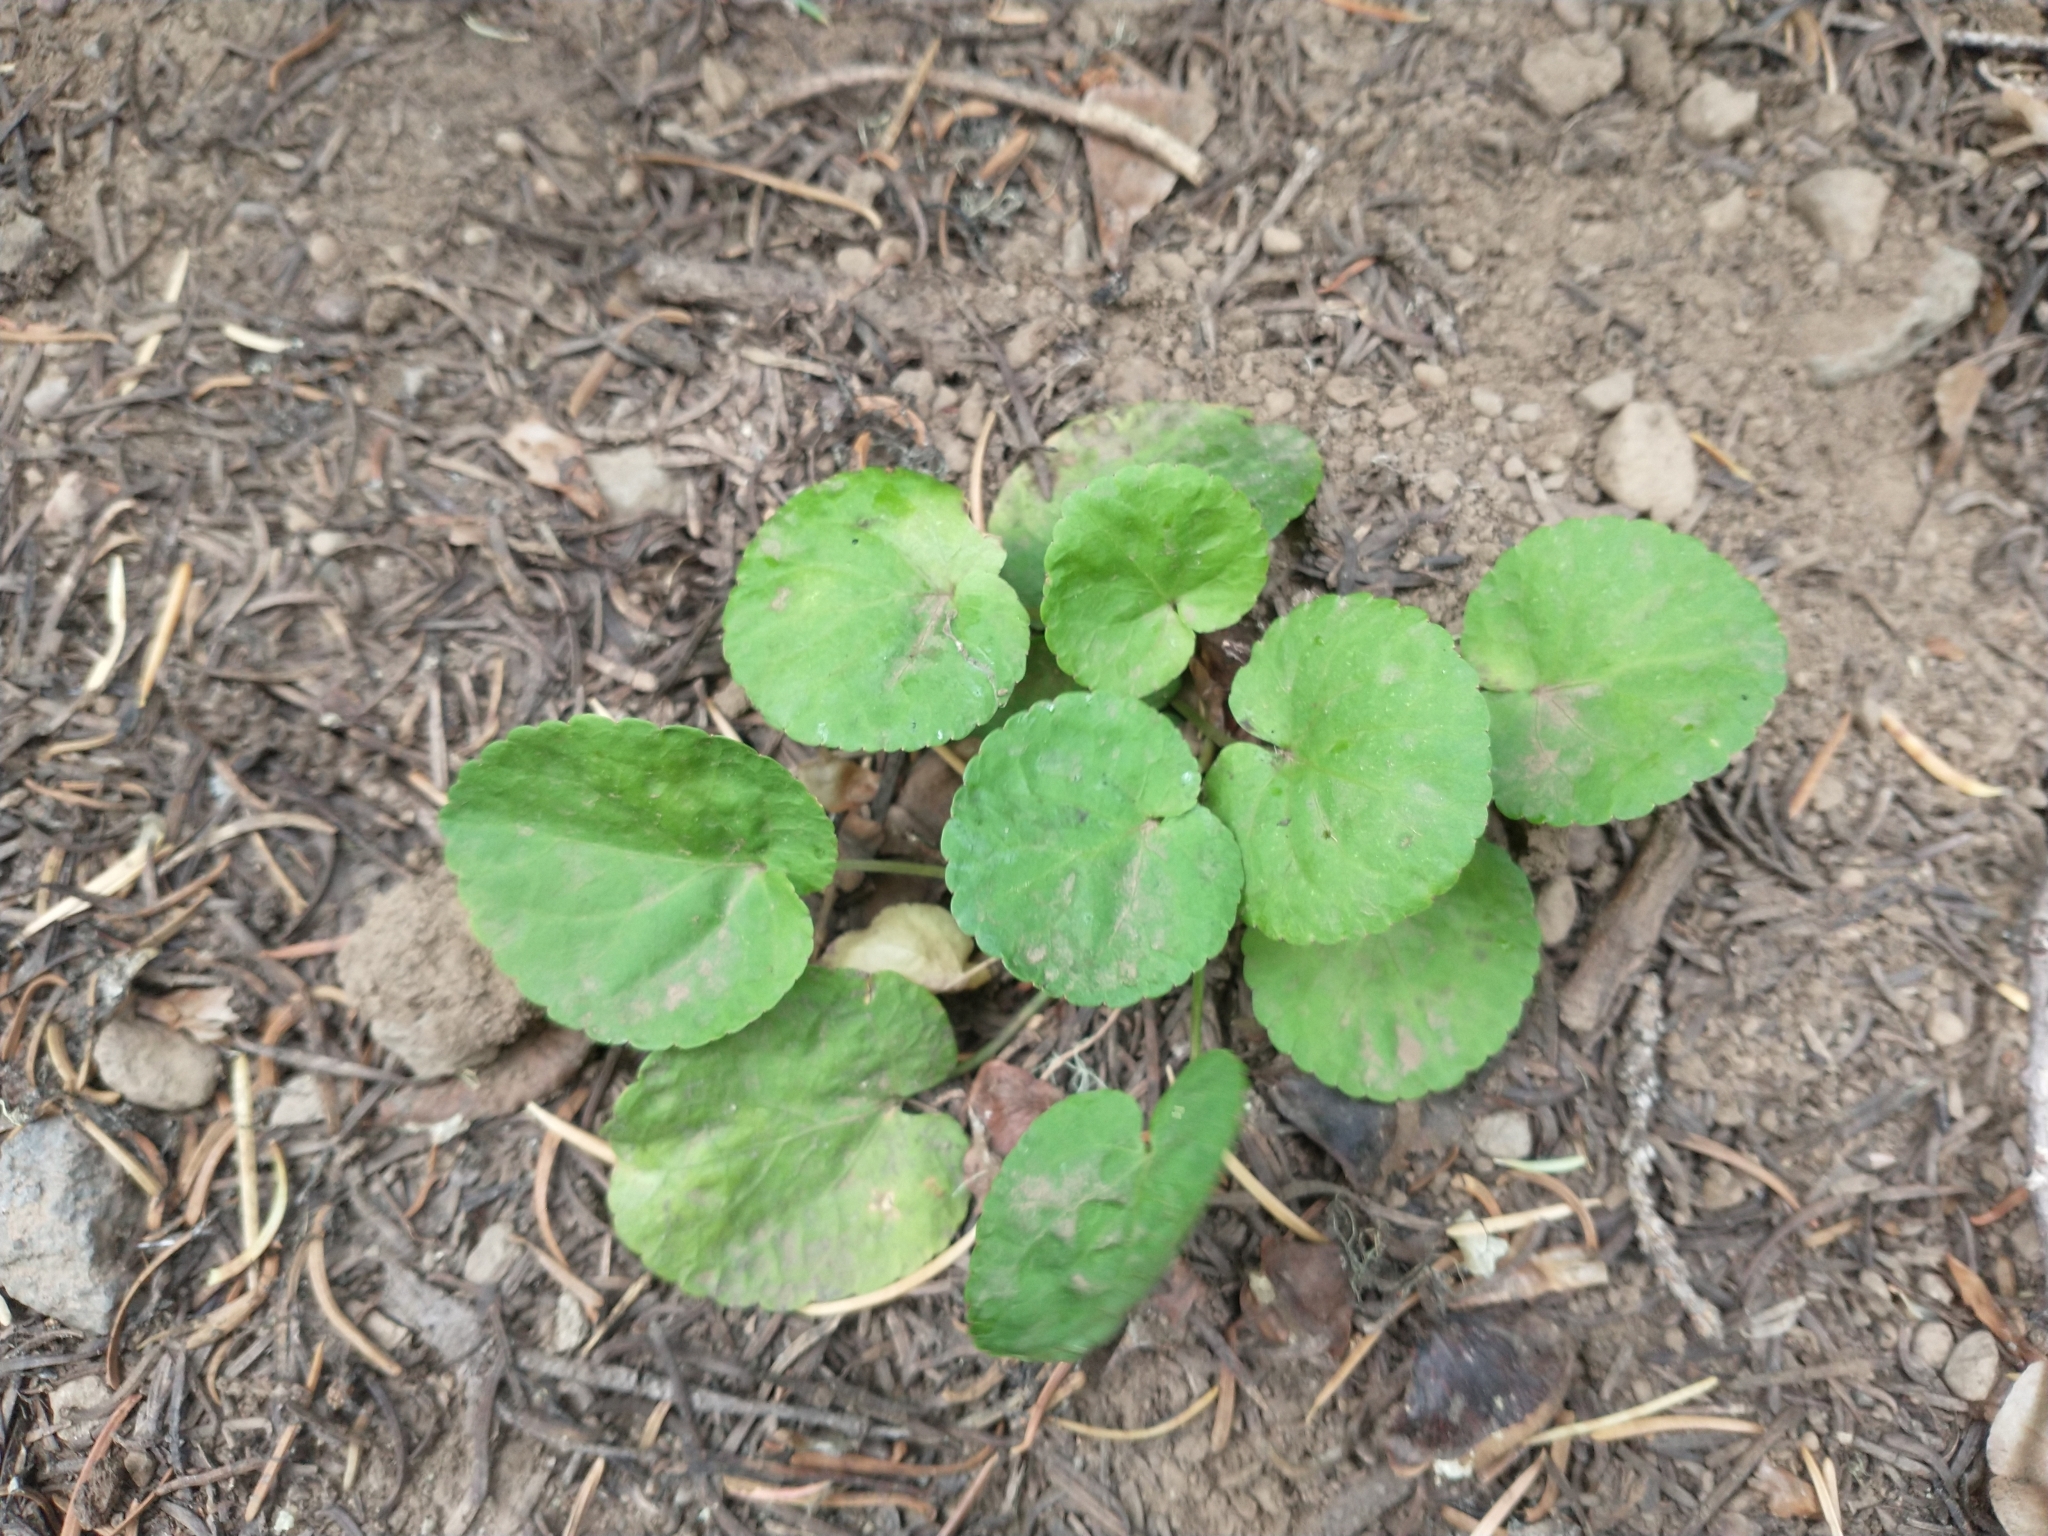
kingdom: Plantae
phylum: Tracheophyta
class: Magnoliopsida
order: Malpighiales
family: Violaceae
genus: Viola
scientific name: Viola orbiculata
